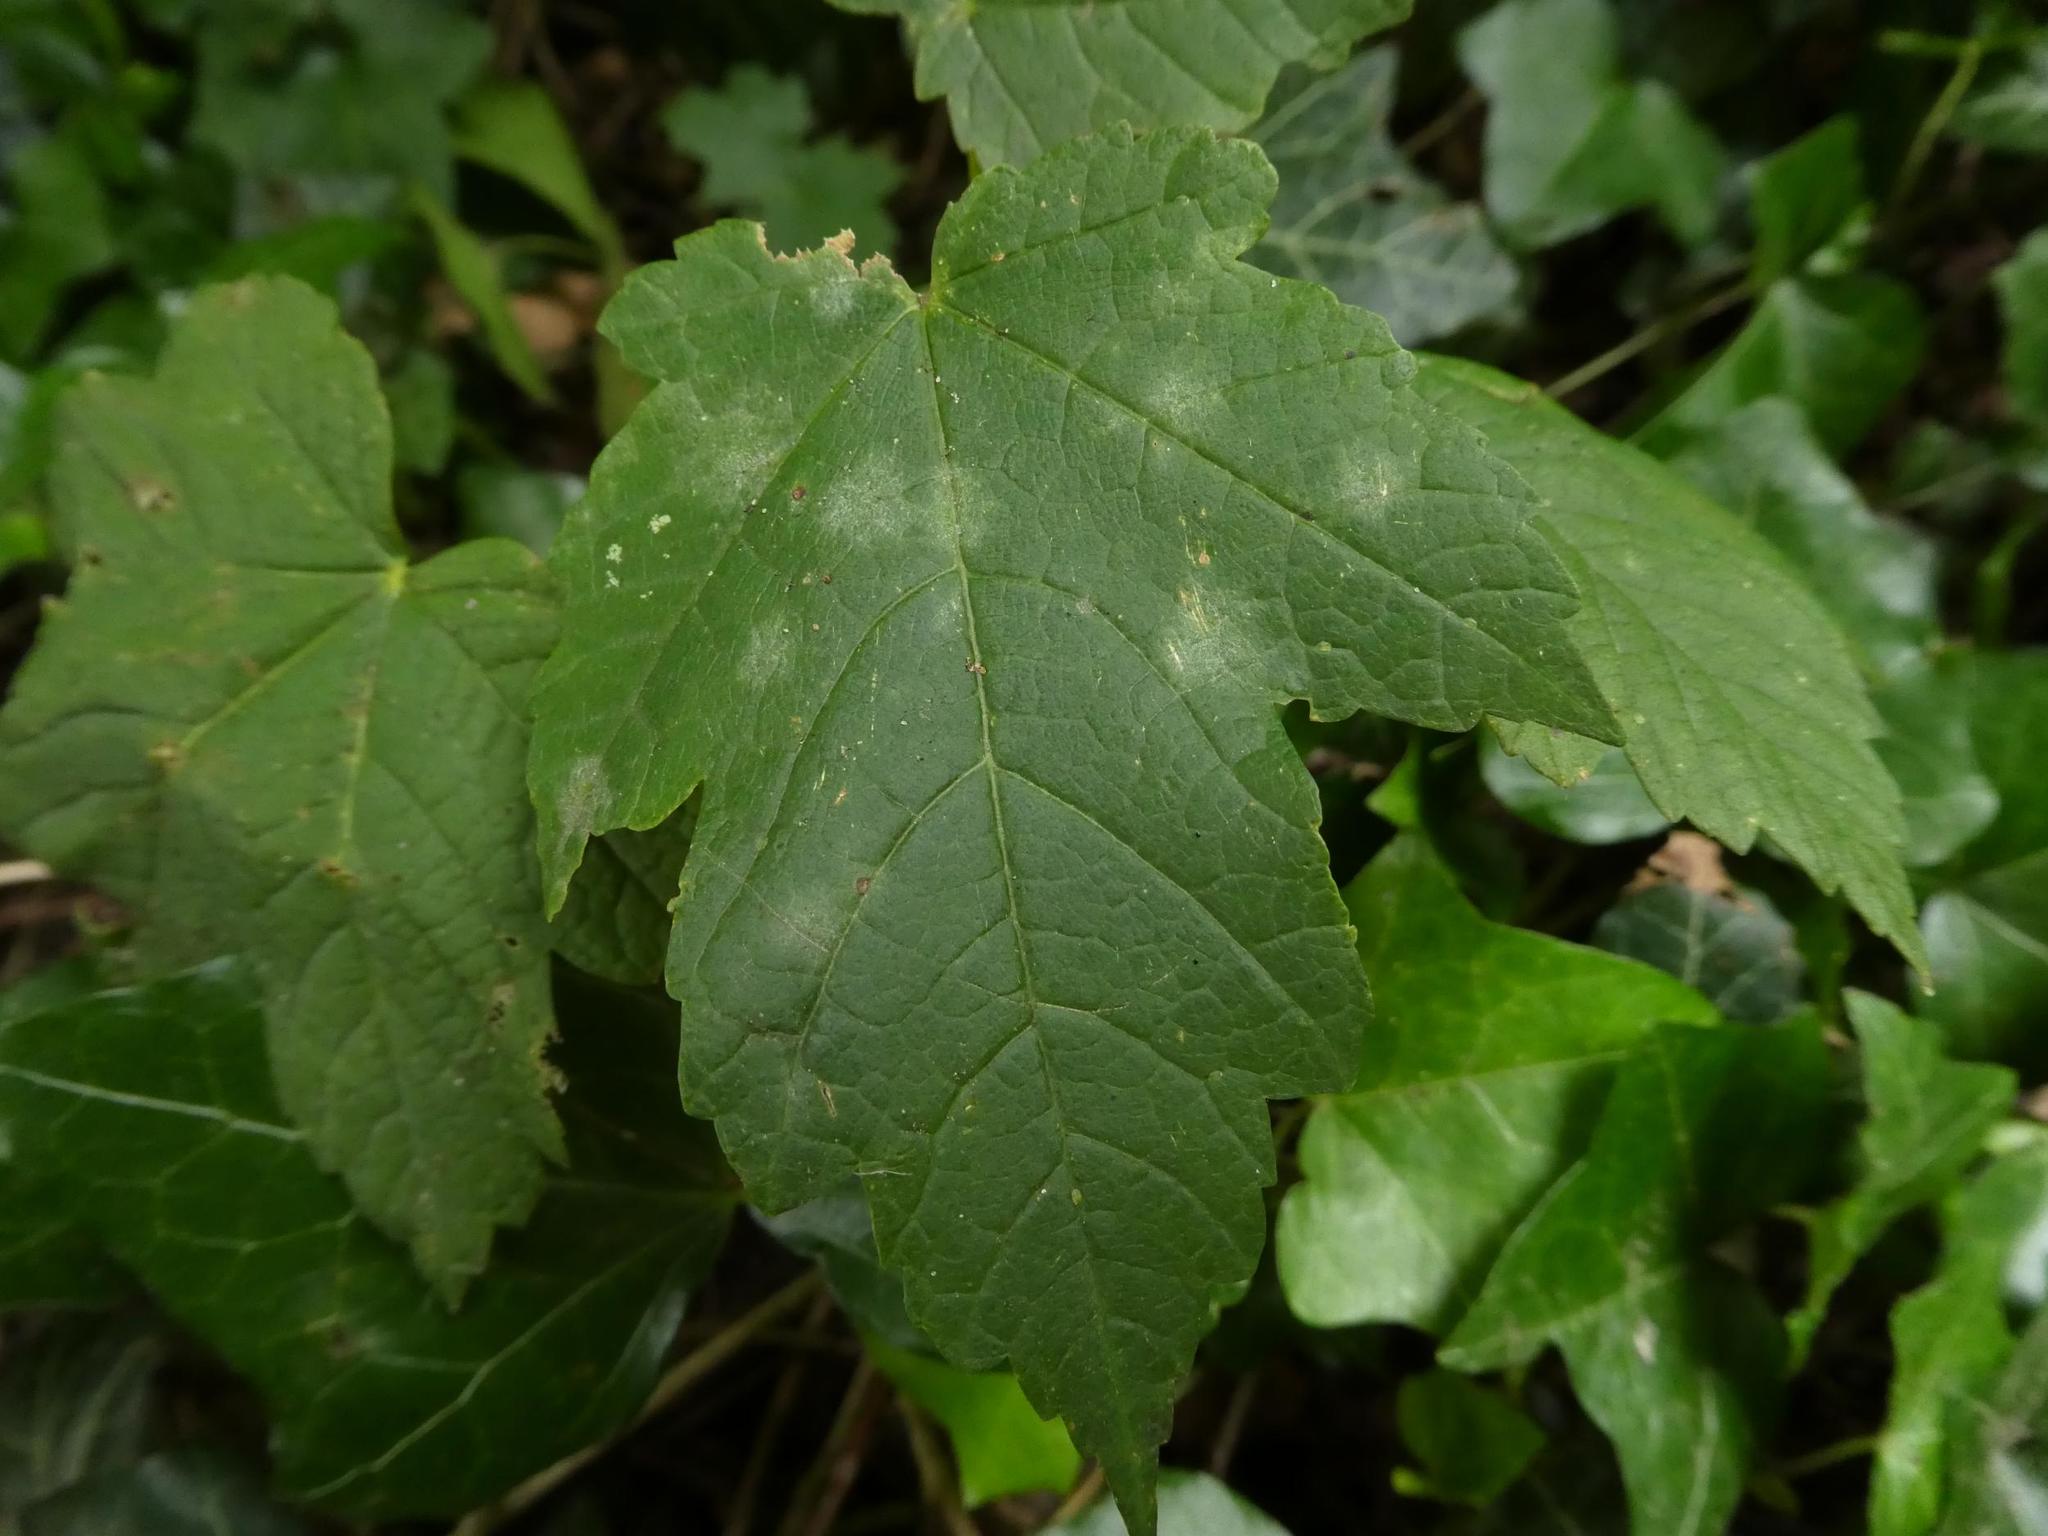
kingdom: Plantae
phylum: Tracheophyta
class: Magnoliopsida
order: Sapindales
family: Sapindaceae
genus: Acer
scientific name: Acer pseudoplatanus
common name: Sycamore
